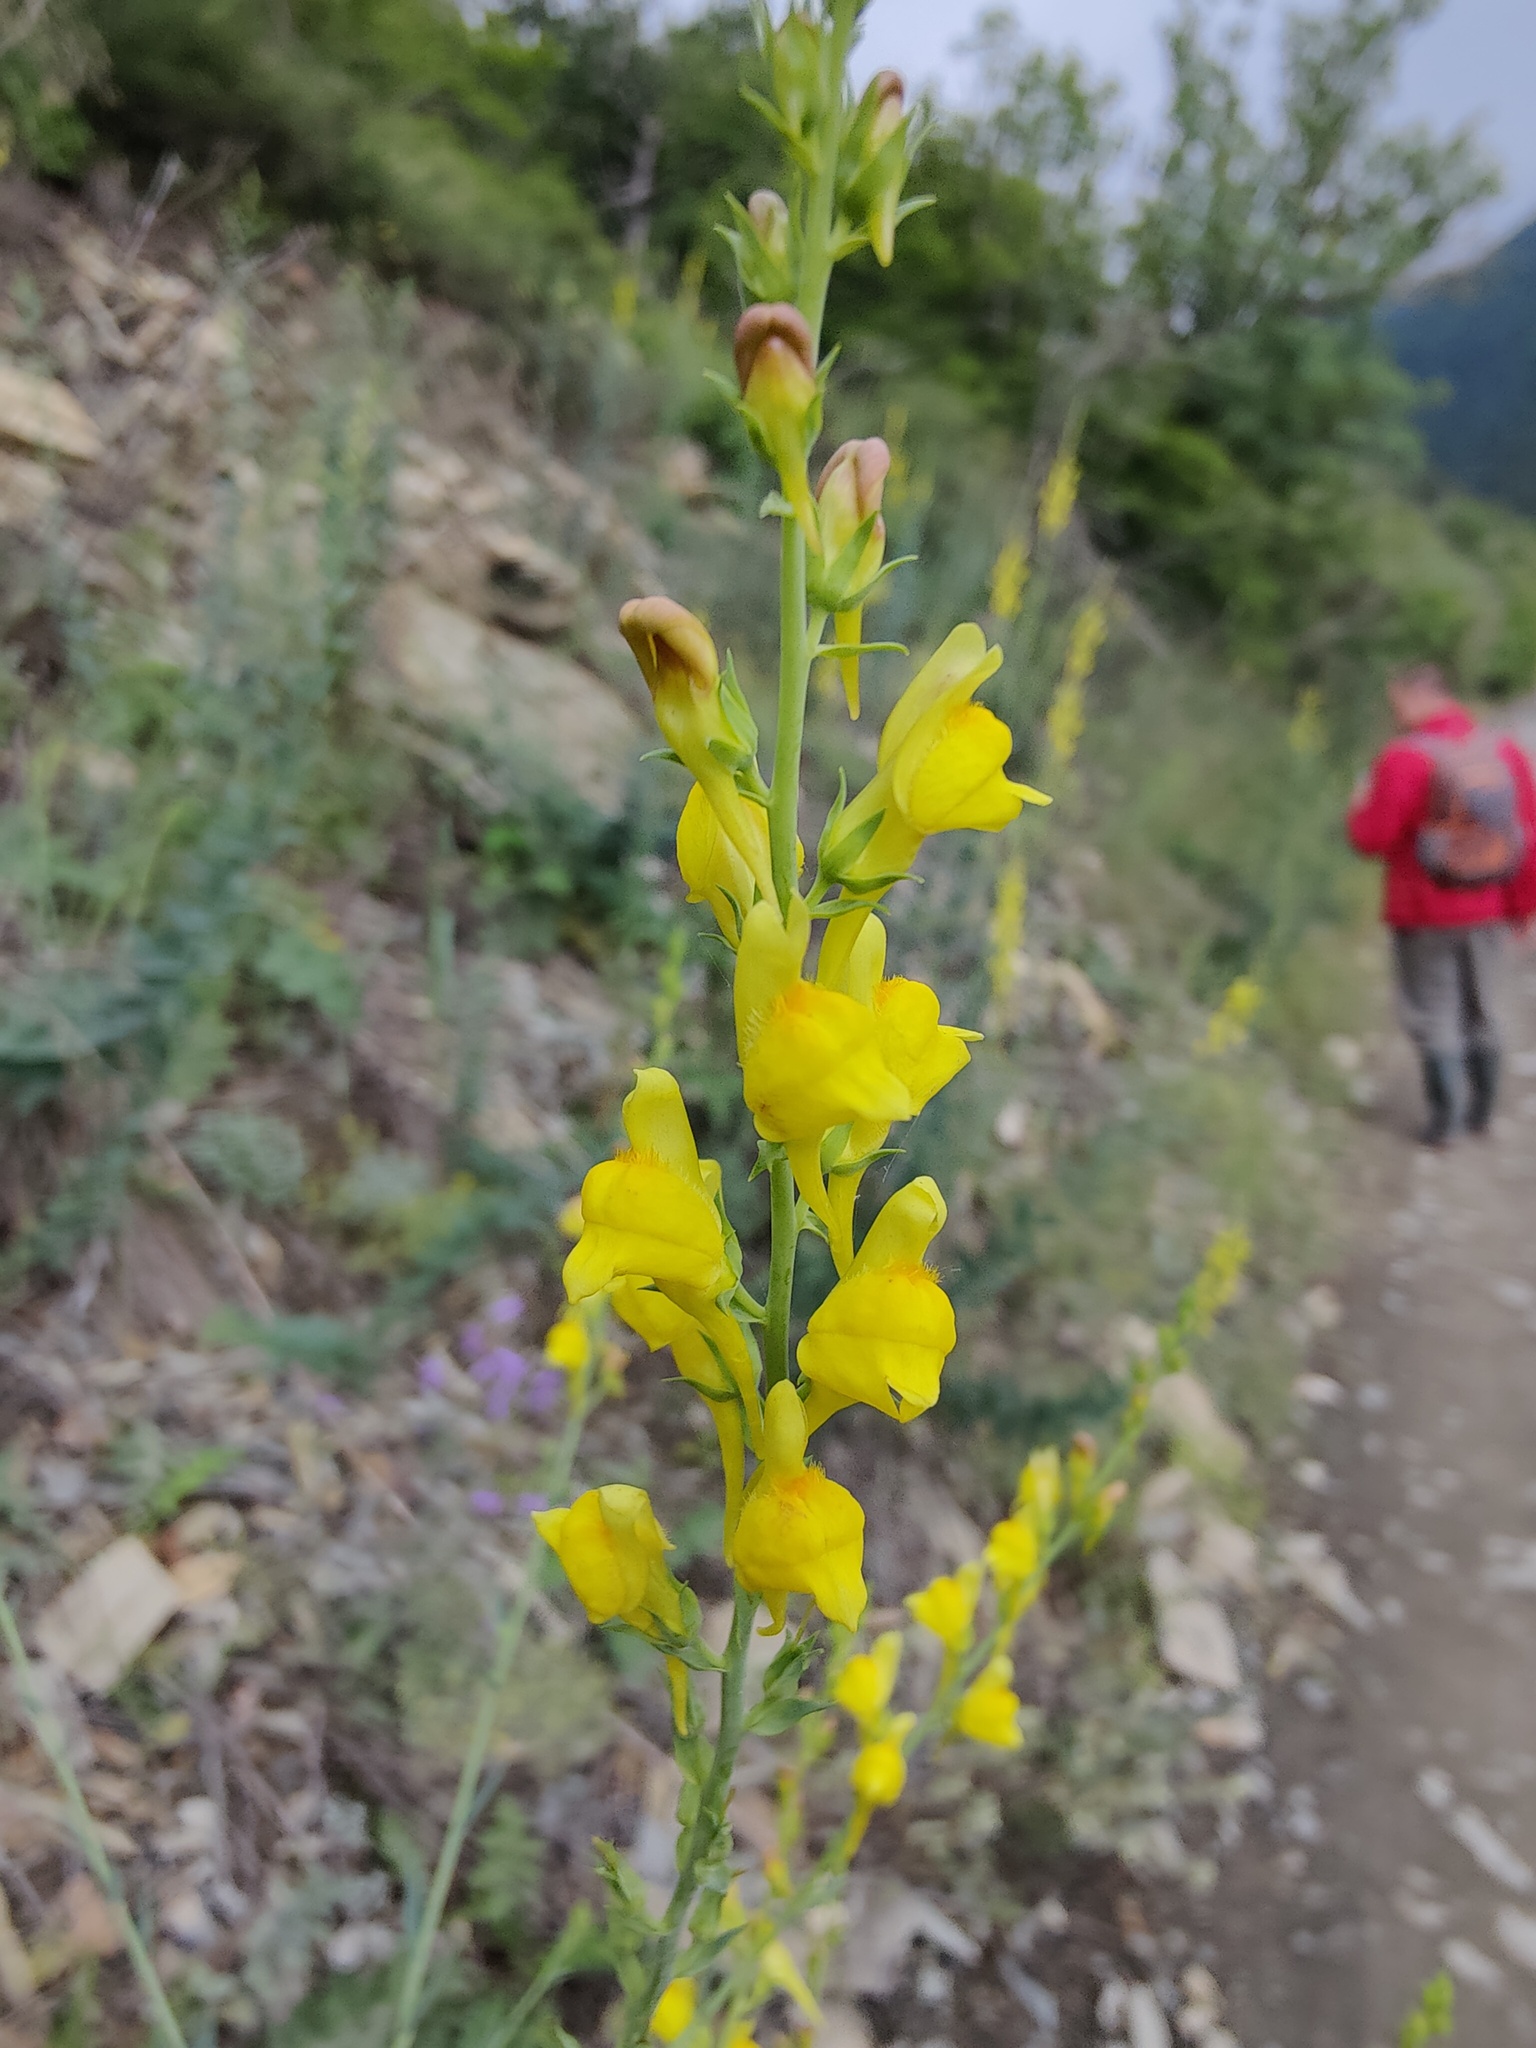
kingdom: Plantae
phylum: Tracheophyta
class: Magnoliopsida
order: Lamiales
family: Plantaginaceae
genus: Linaria
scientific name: Linaria genistifolia
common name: Broomleaf toadflax
